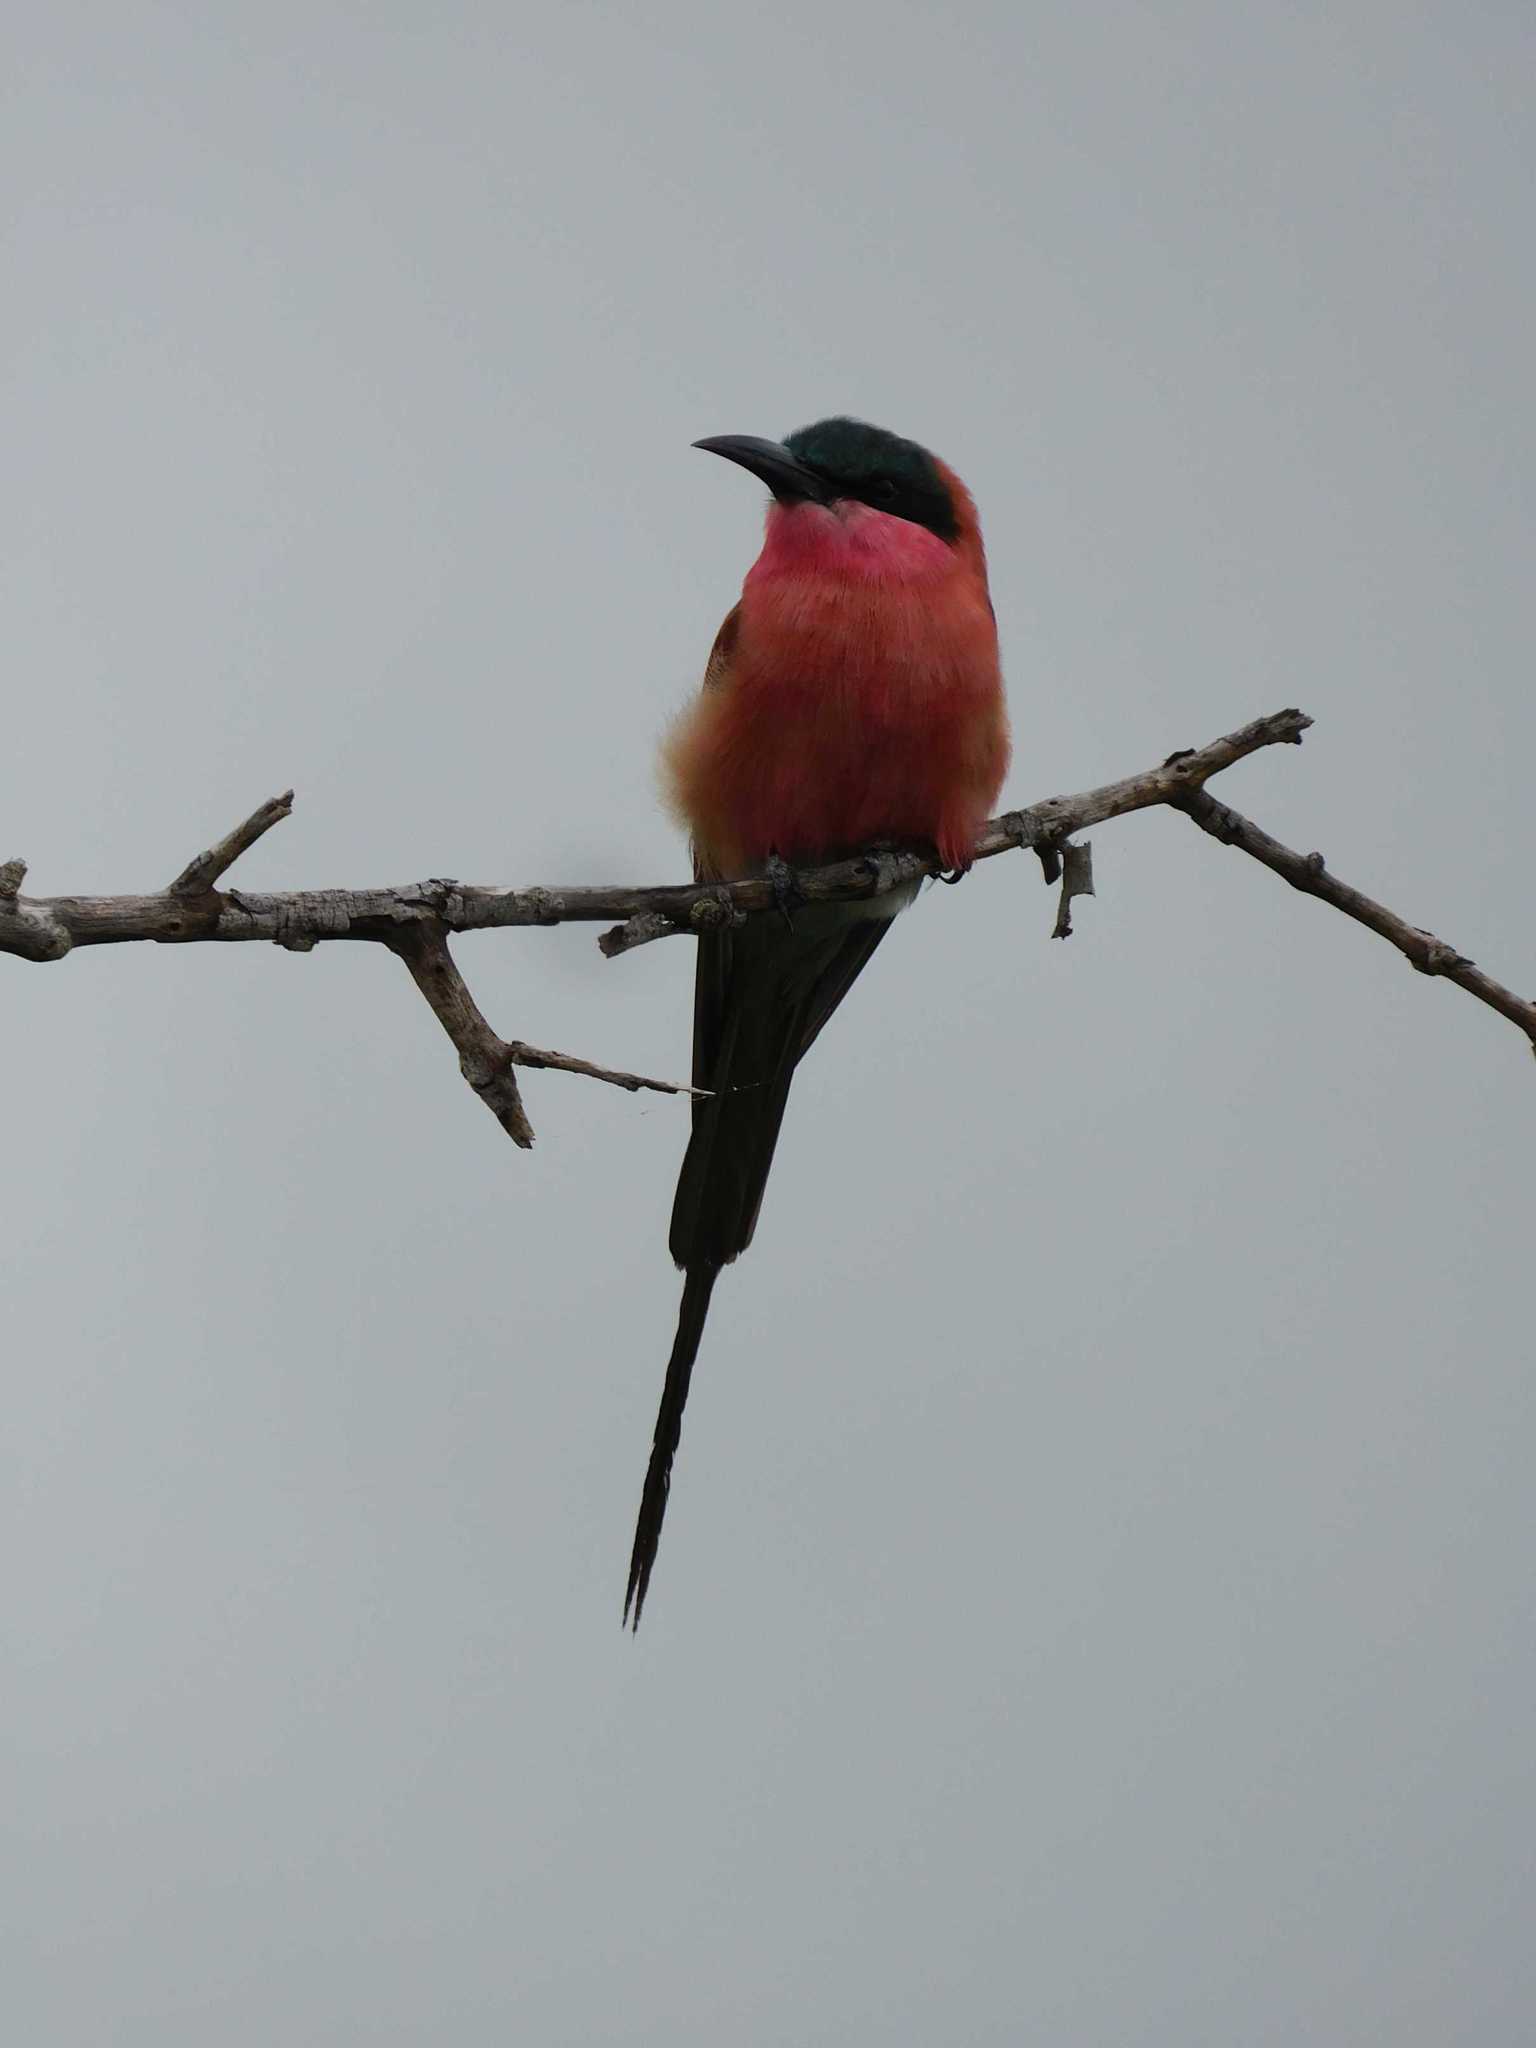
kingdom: Animalia
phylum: Chordata
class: Aves
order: Coraciiformes
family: Meropidae
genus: Merops
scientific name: Merops nubicoides
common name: Southern carmine bee-eater
